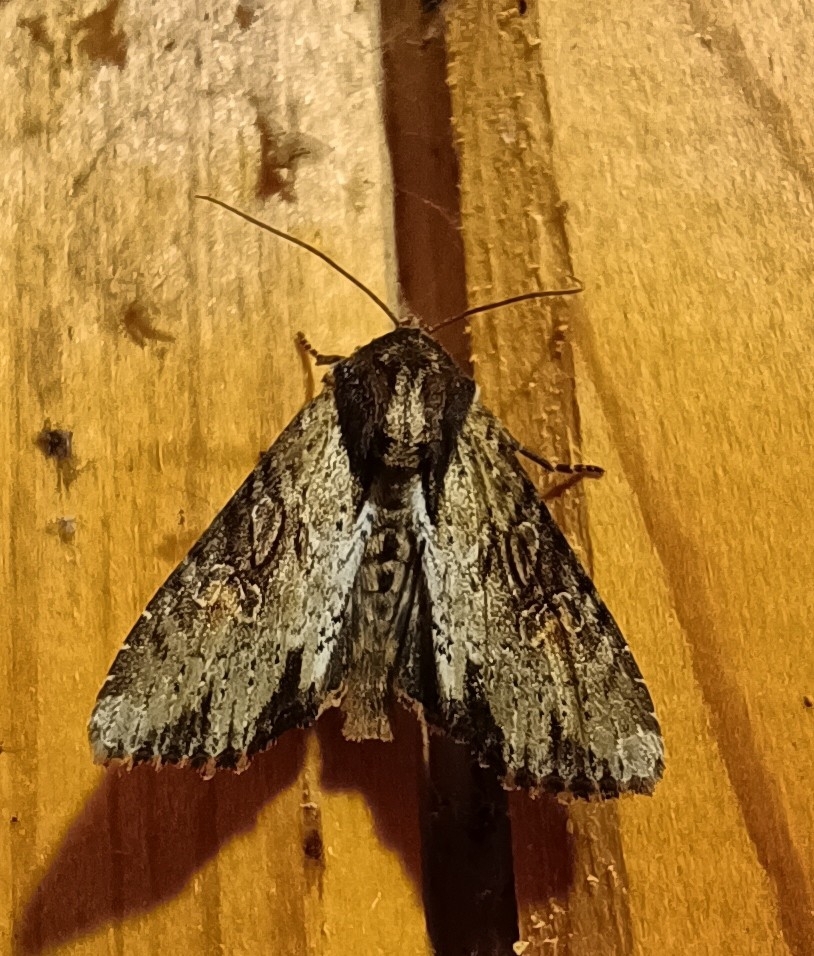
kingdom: Animalia
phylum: Arthropoda
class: Insecta
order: Lepidoptera
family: Noctuidae
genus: Apamea
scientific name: Apamea crenata
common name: Clouded-bordered brindle
